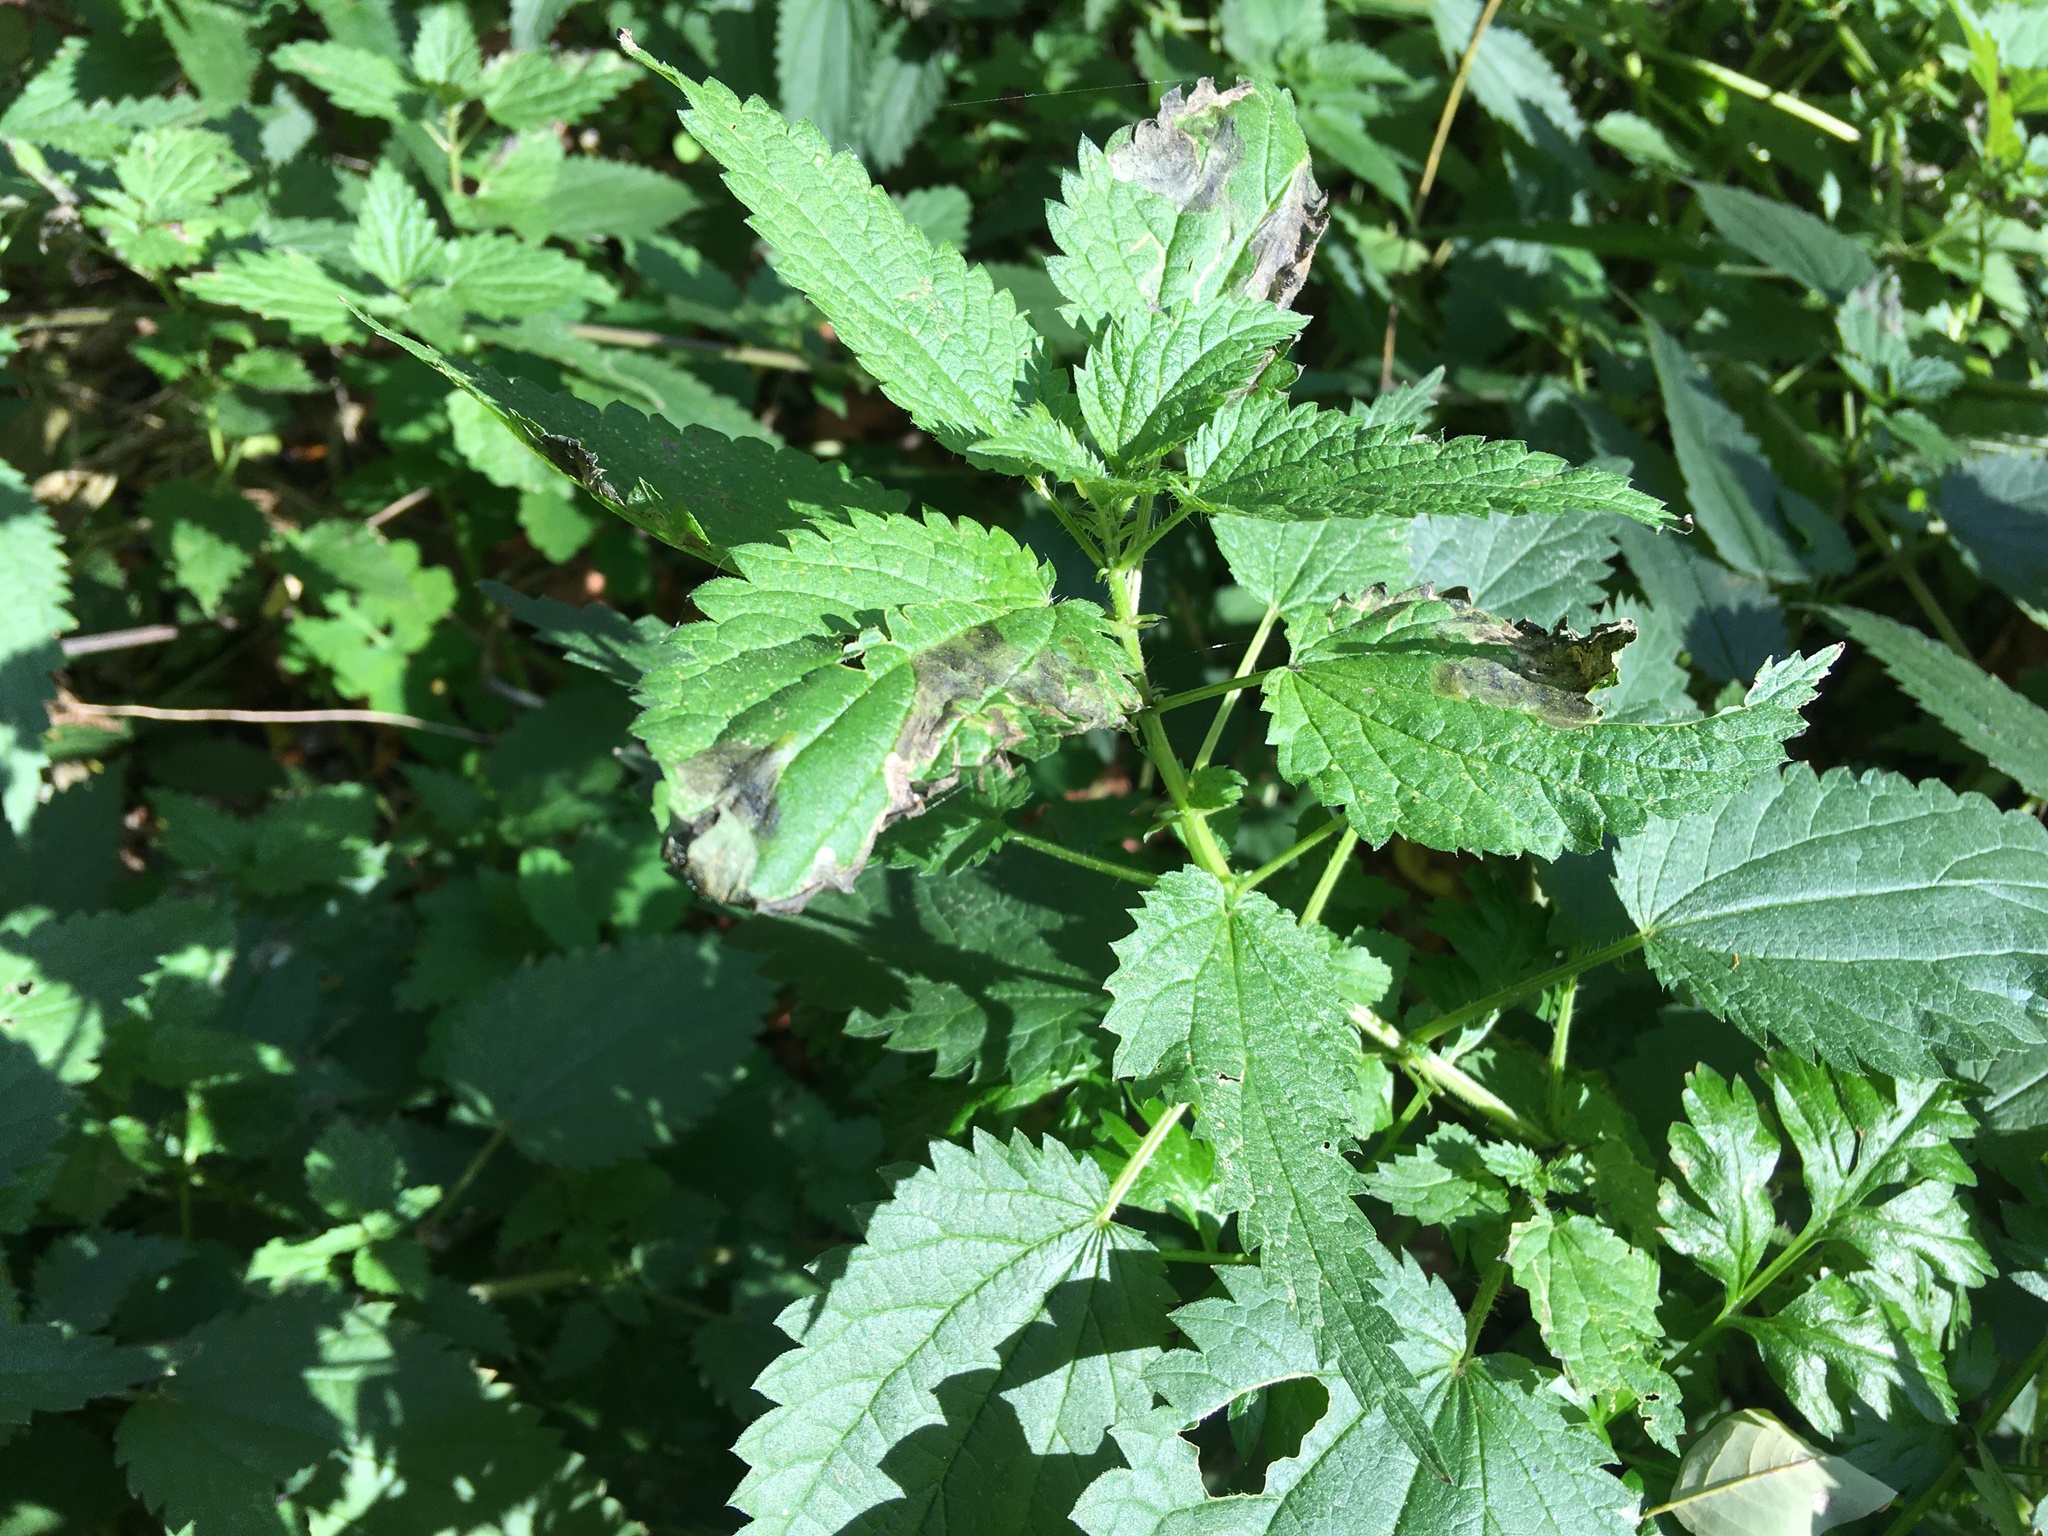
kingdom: Plantae
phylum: Tracheophyta
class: Magnoliopsida
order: Rosales
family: Urticaceae
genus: Urtica
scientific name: Urtica dioica
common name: Common nettle
